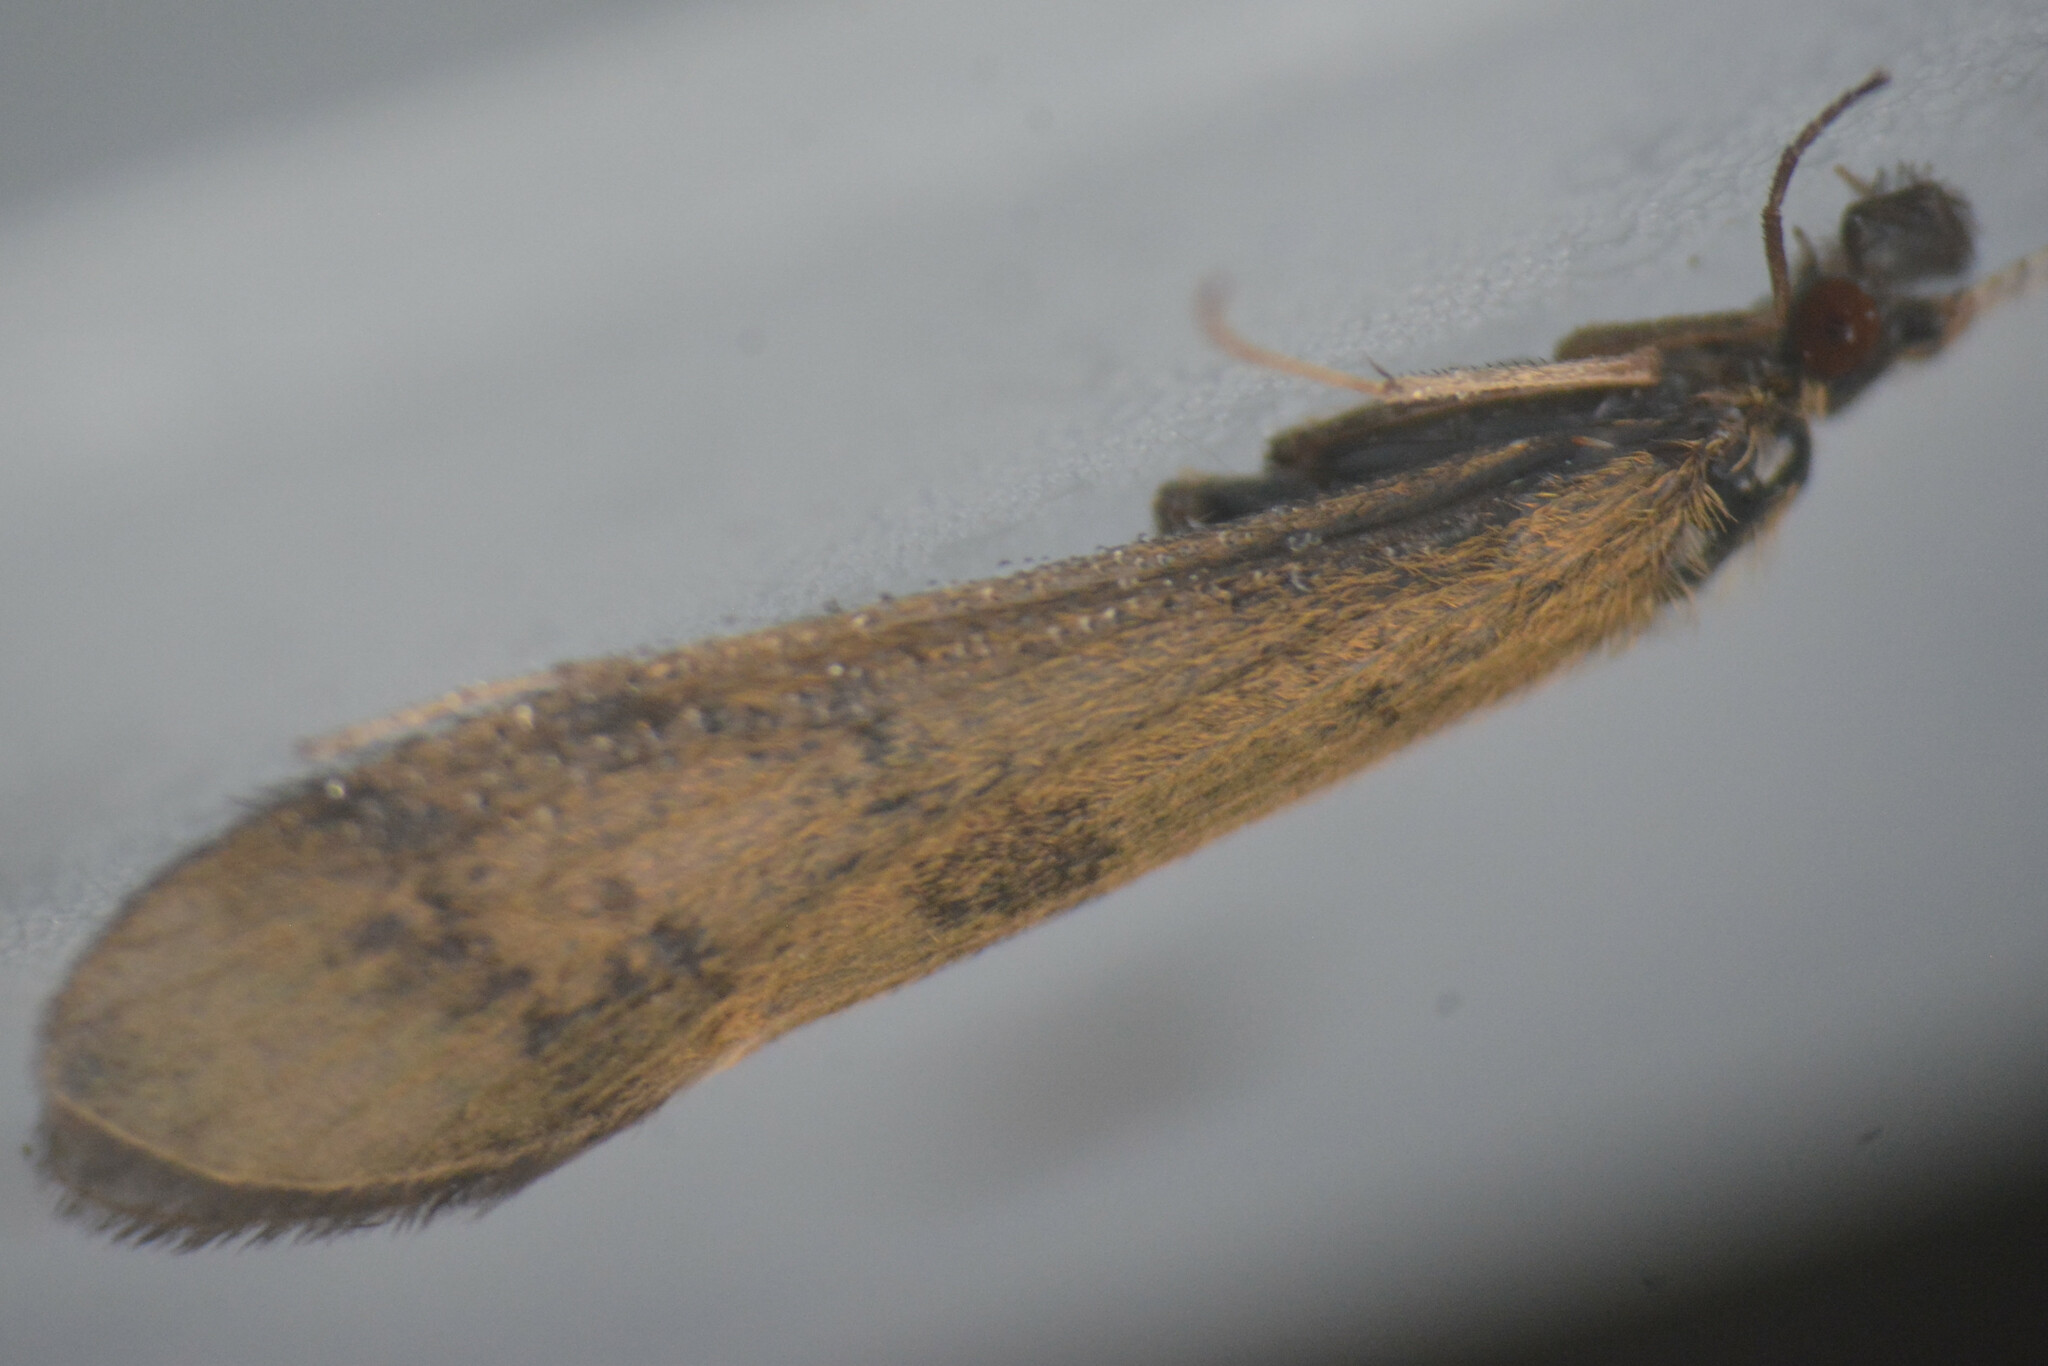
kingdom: Animalia
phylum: Arthropoda
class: Insecta
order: Trichoptera
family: Leptoceridae
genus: Mystacides
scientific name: Mystacides longicornis
